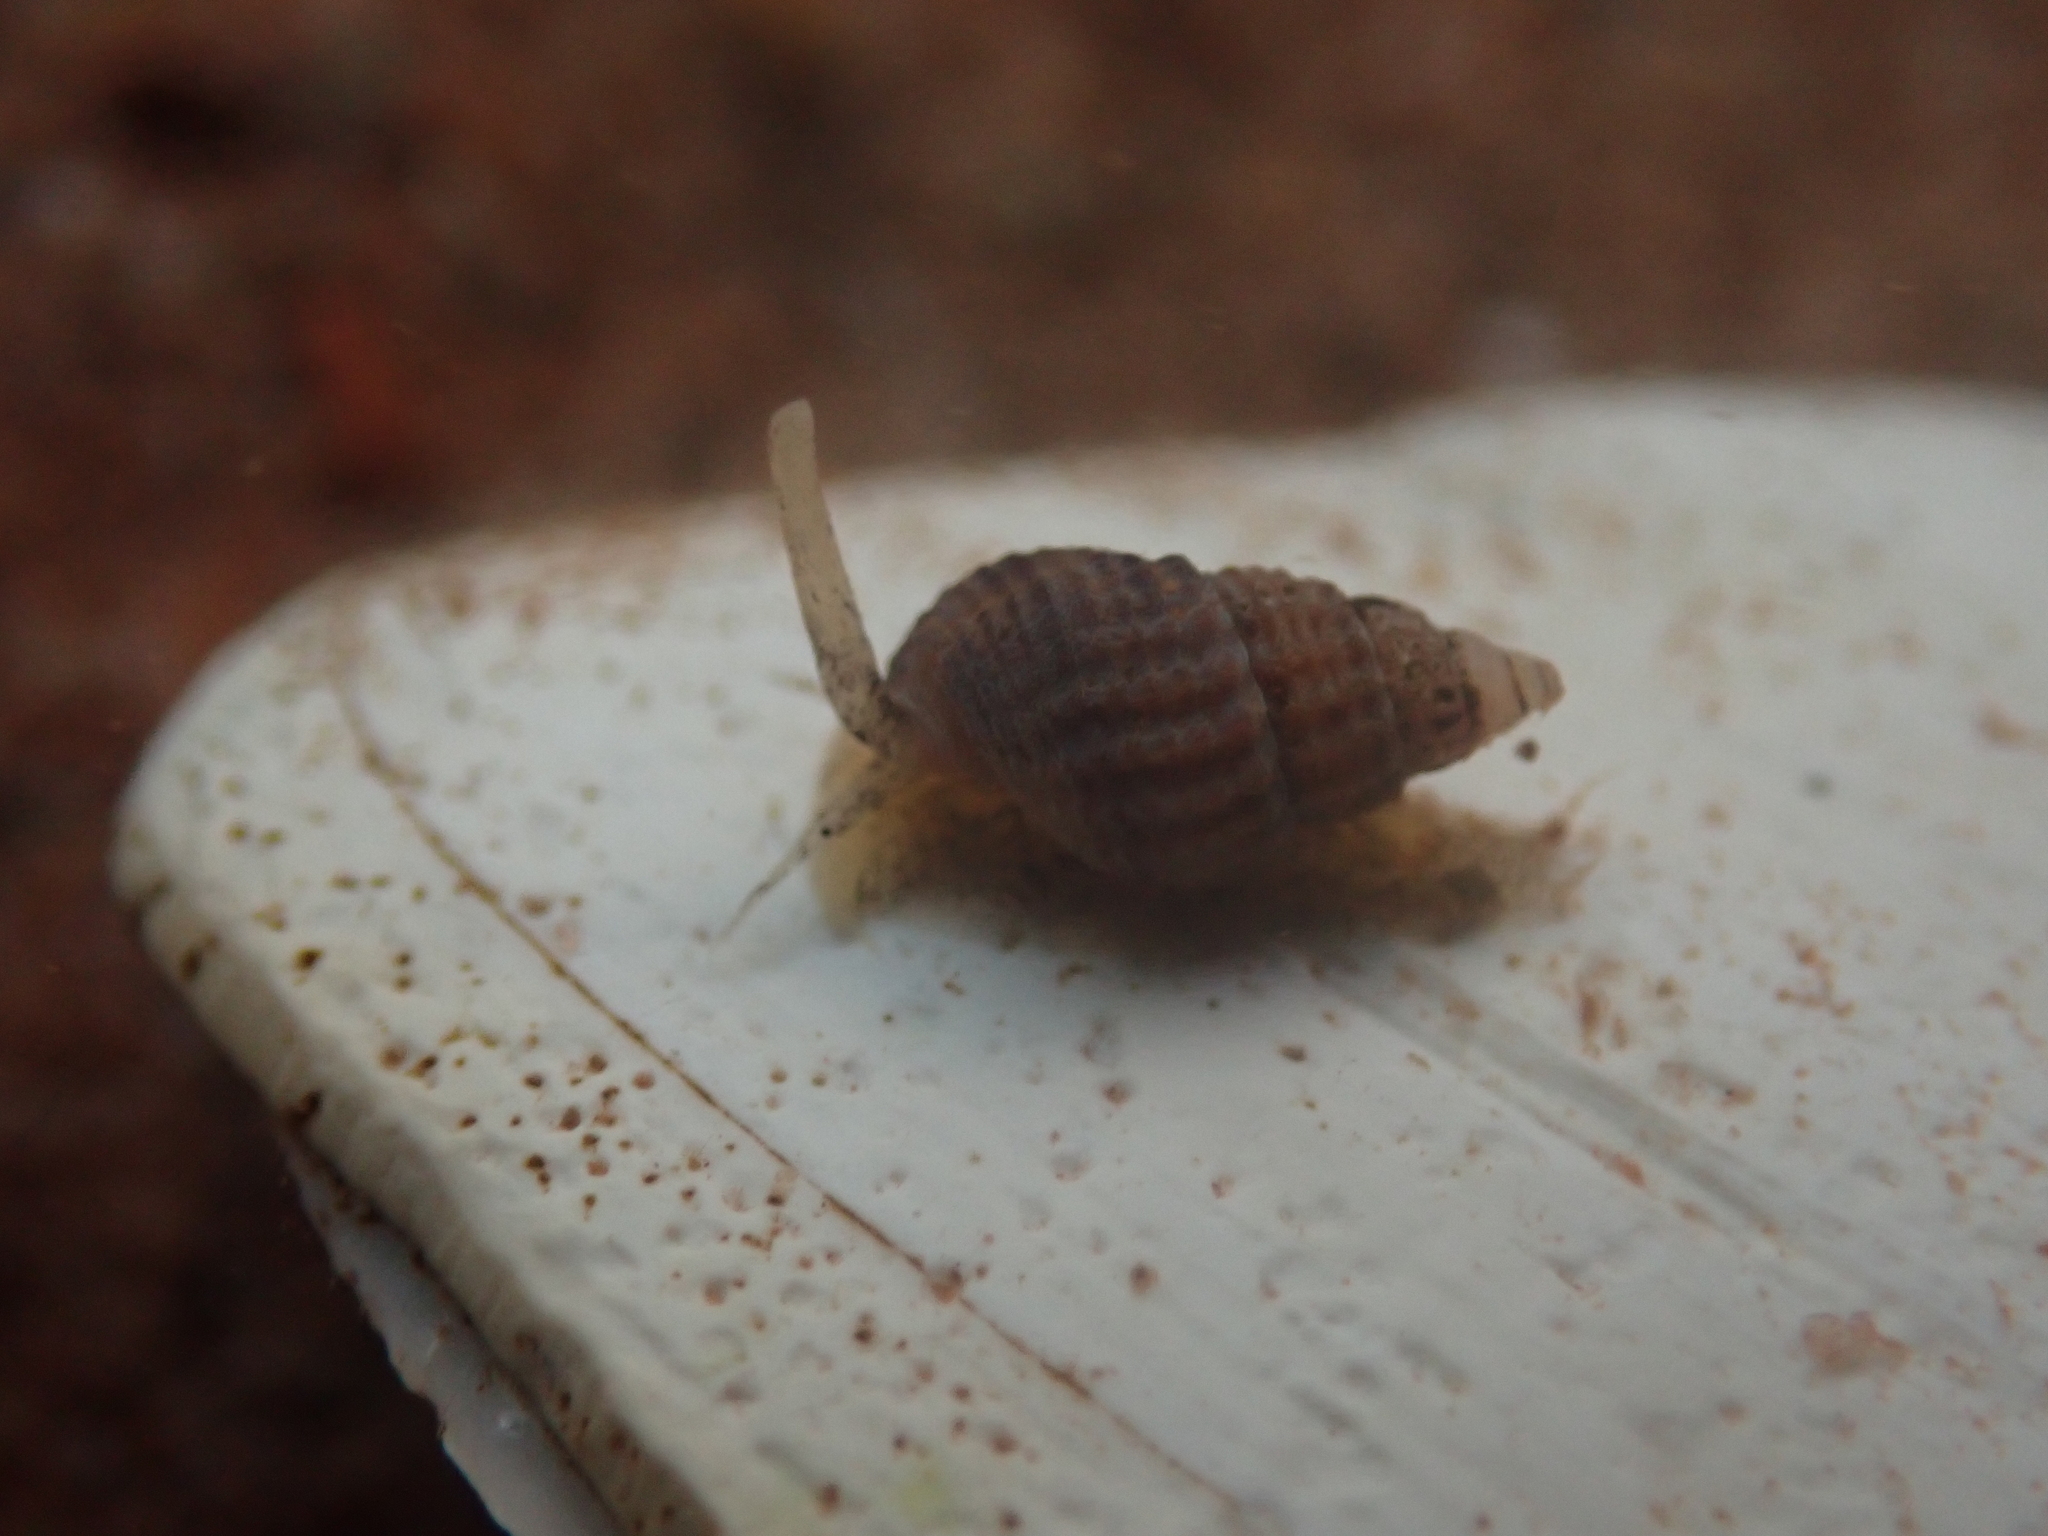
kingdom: Animalia
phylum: Mollusca
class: Gastropoda
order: Neogastropoda
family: Nassariidae
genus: Ilyanassa
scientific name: Ilyanassa trivittata
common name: Three-line mudsnail
